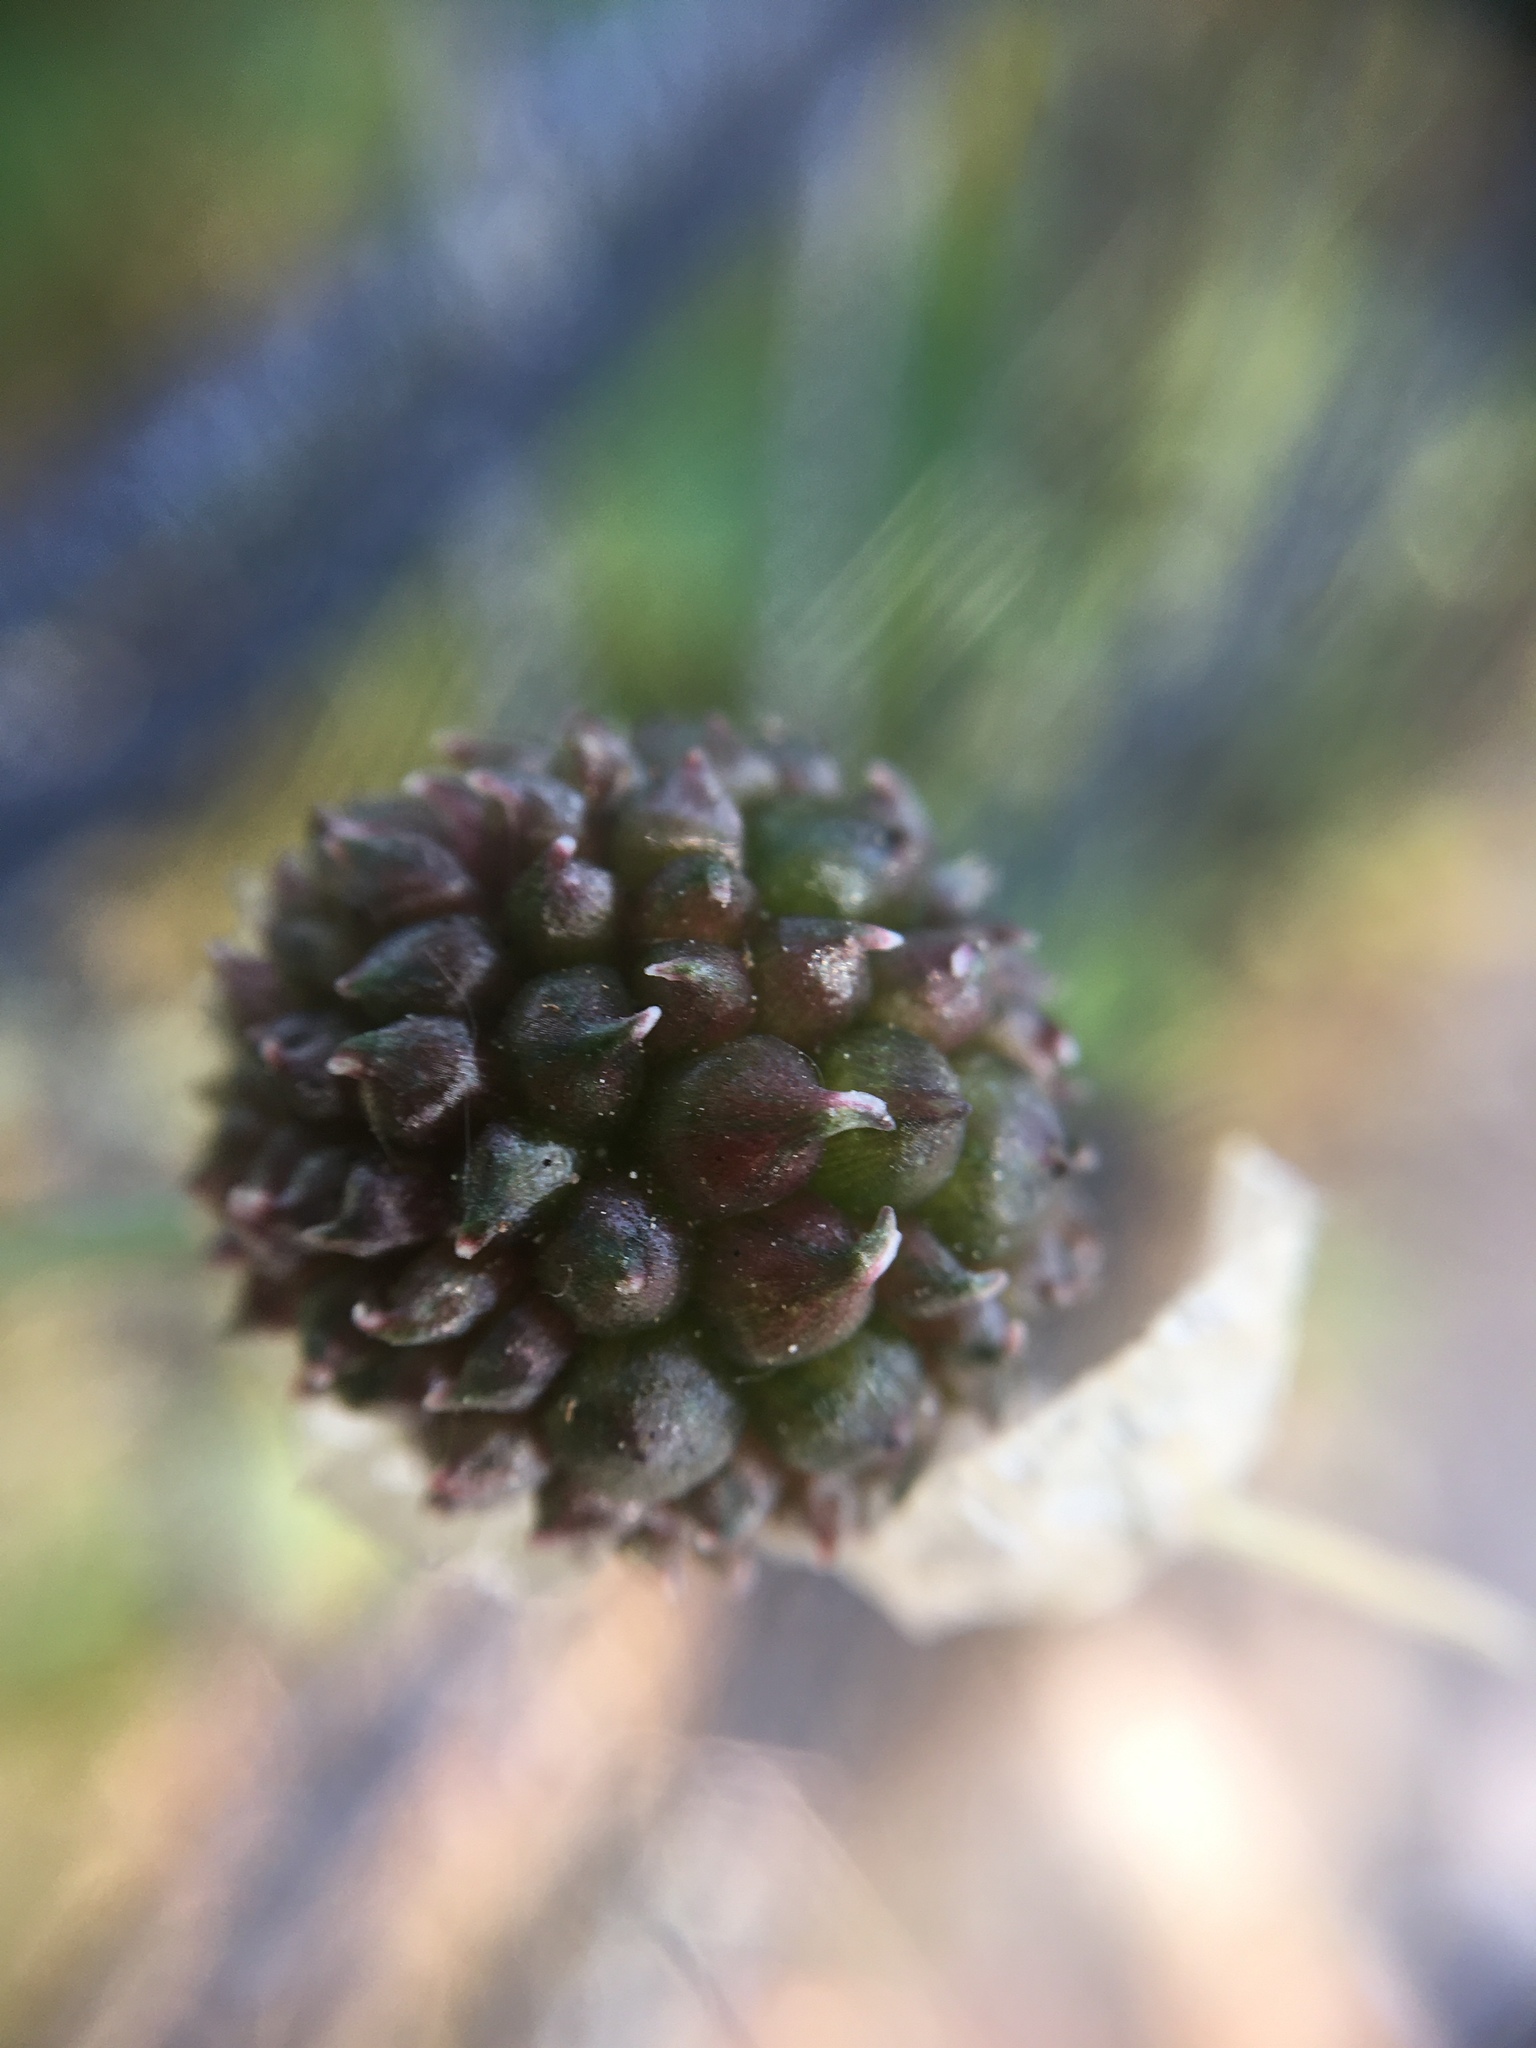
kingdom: Plantae
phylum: Tracheophyta
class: Liliopsida
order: Asparagales
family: Amaryllidaceae
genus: Allium
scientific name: Allium vineale
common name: Crow garlic
